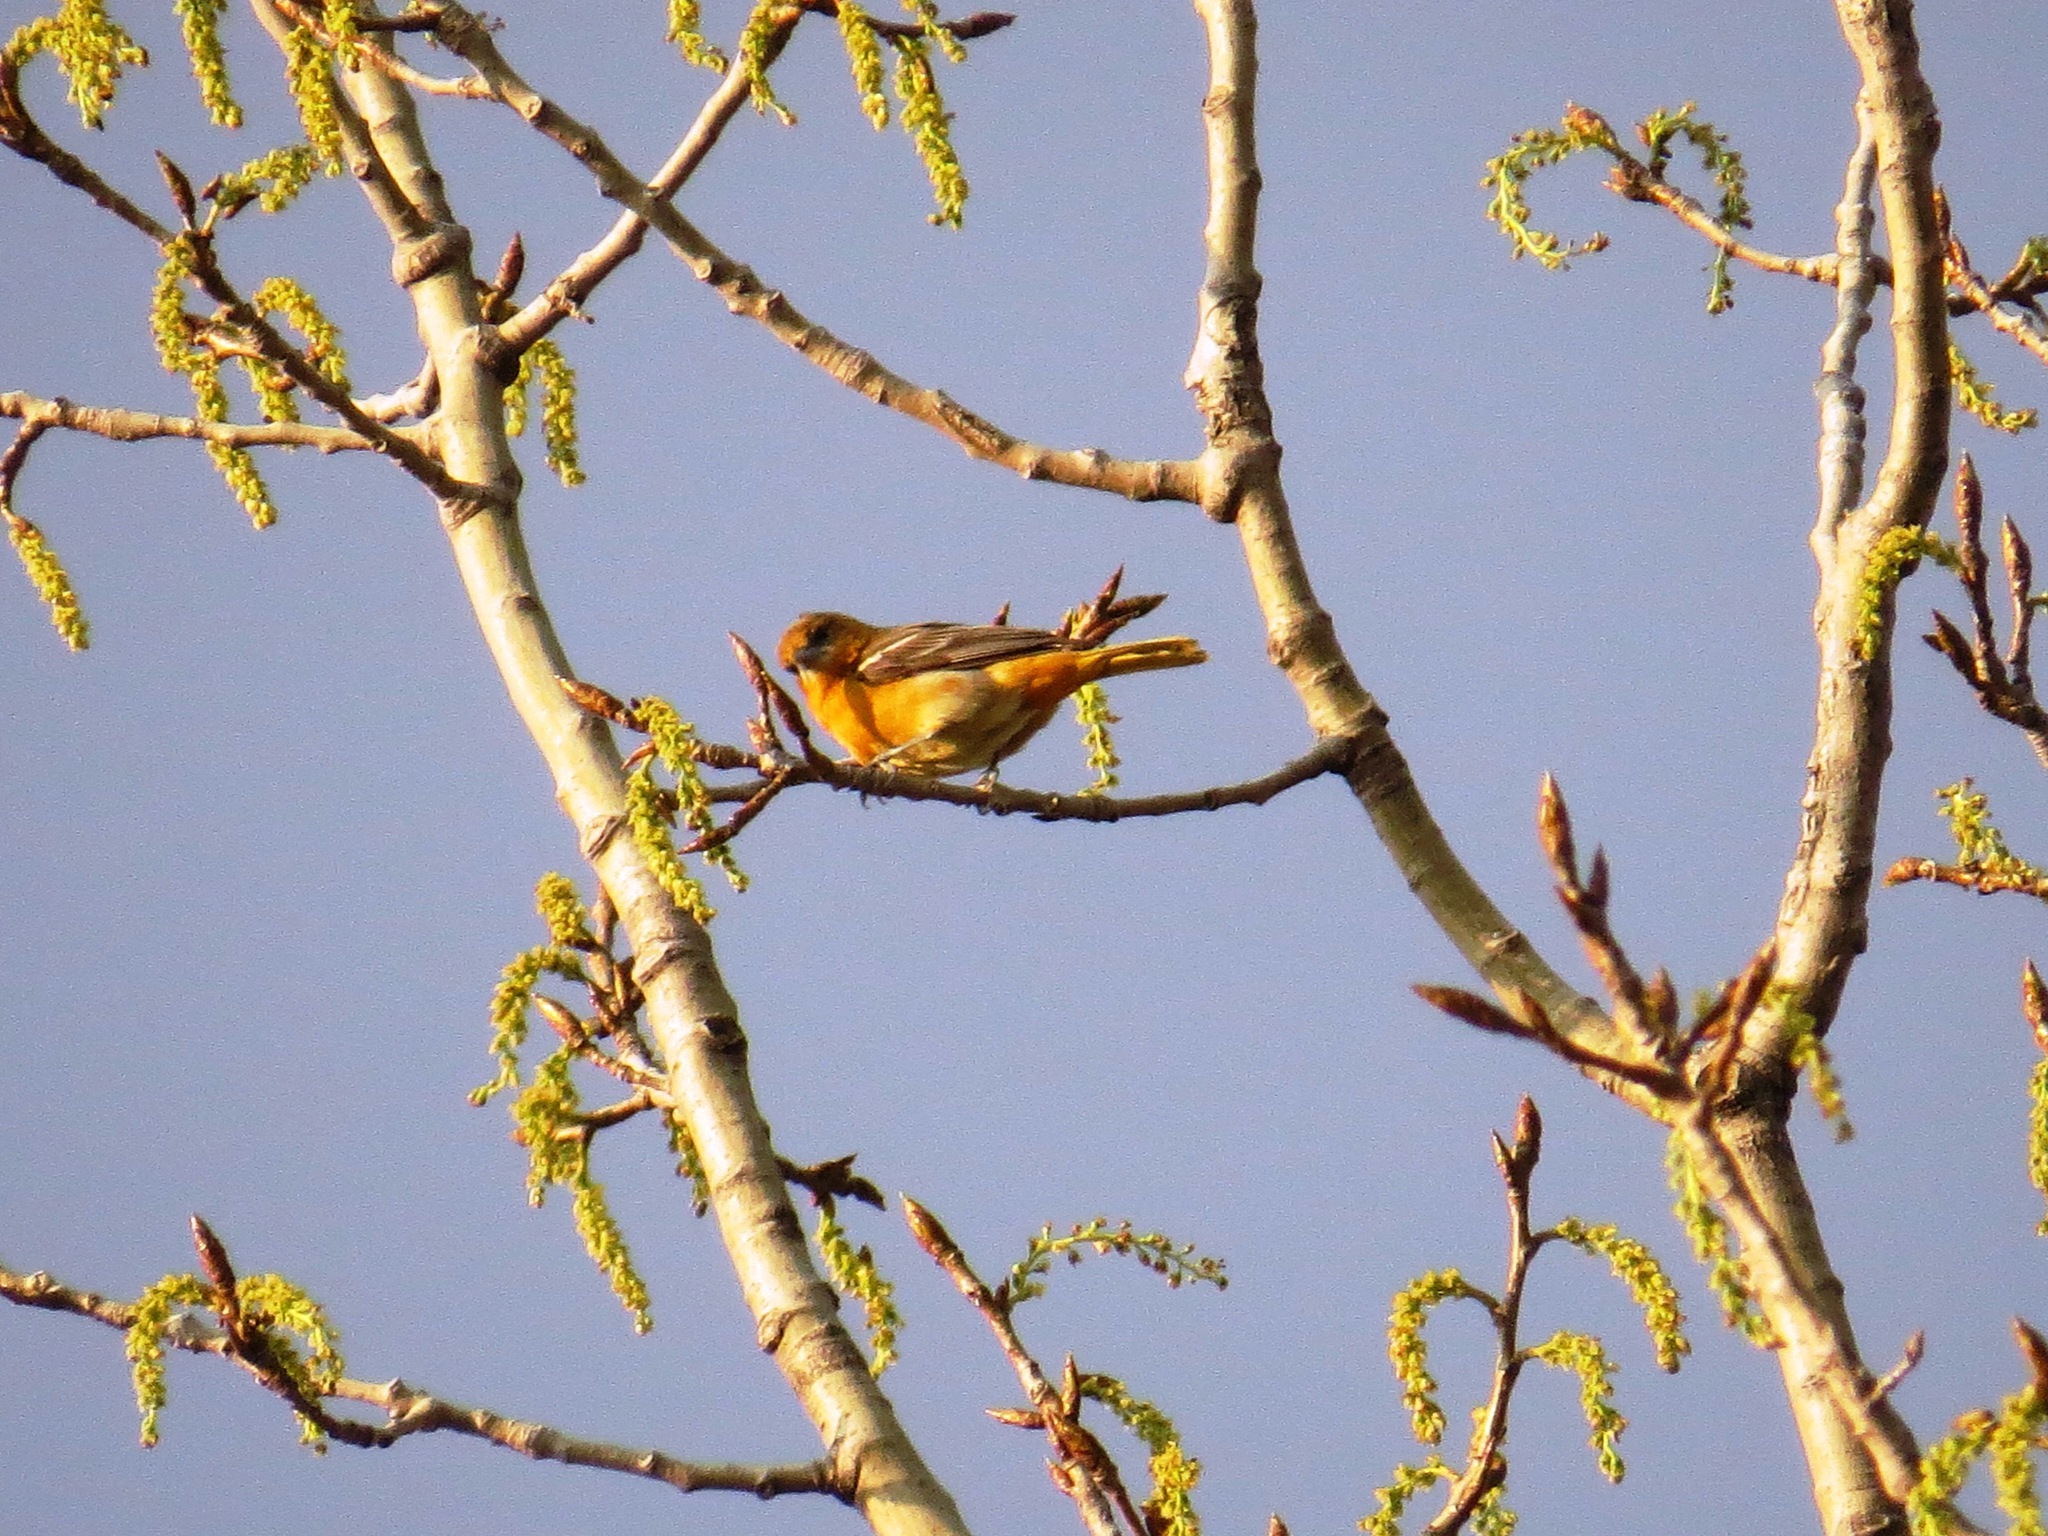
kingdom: Animalia
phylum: Chordata
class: Aves
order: Passeriformes
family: Icteridae
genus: Icterus
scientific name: Icterus galbula
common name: Baltimore oriole
